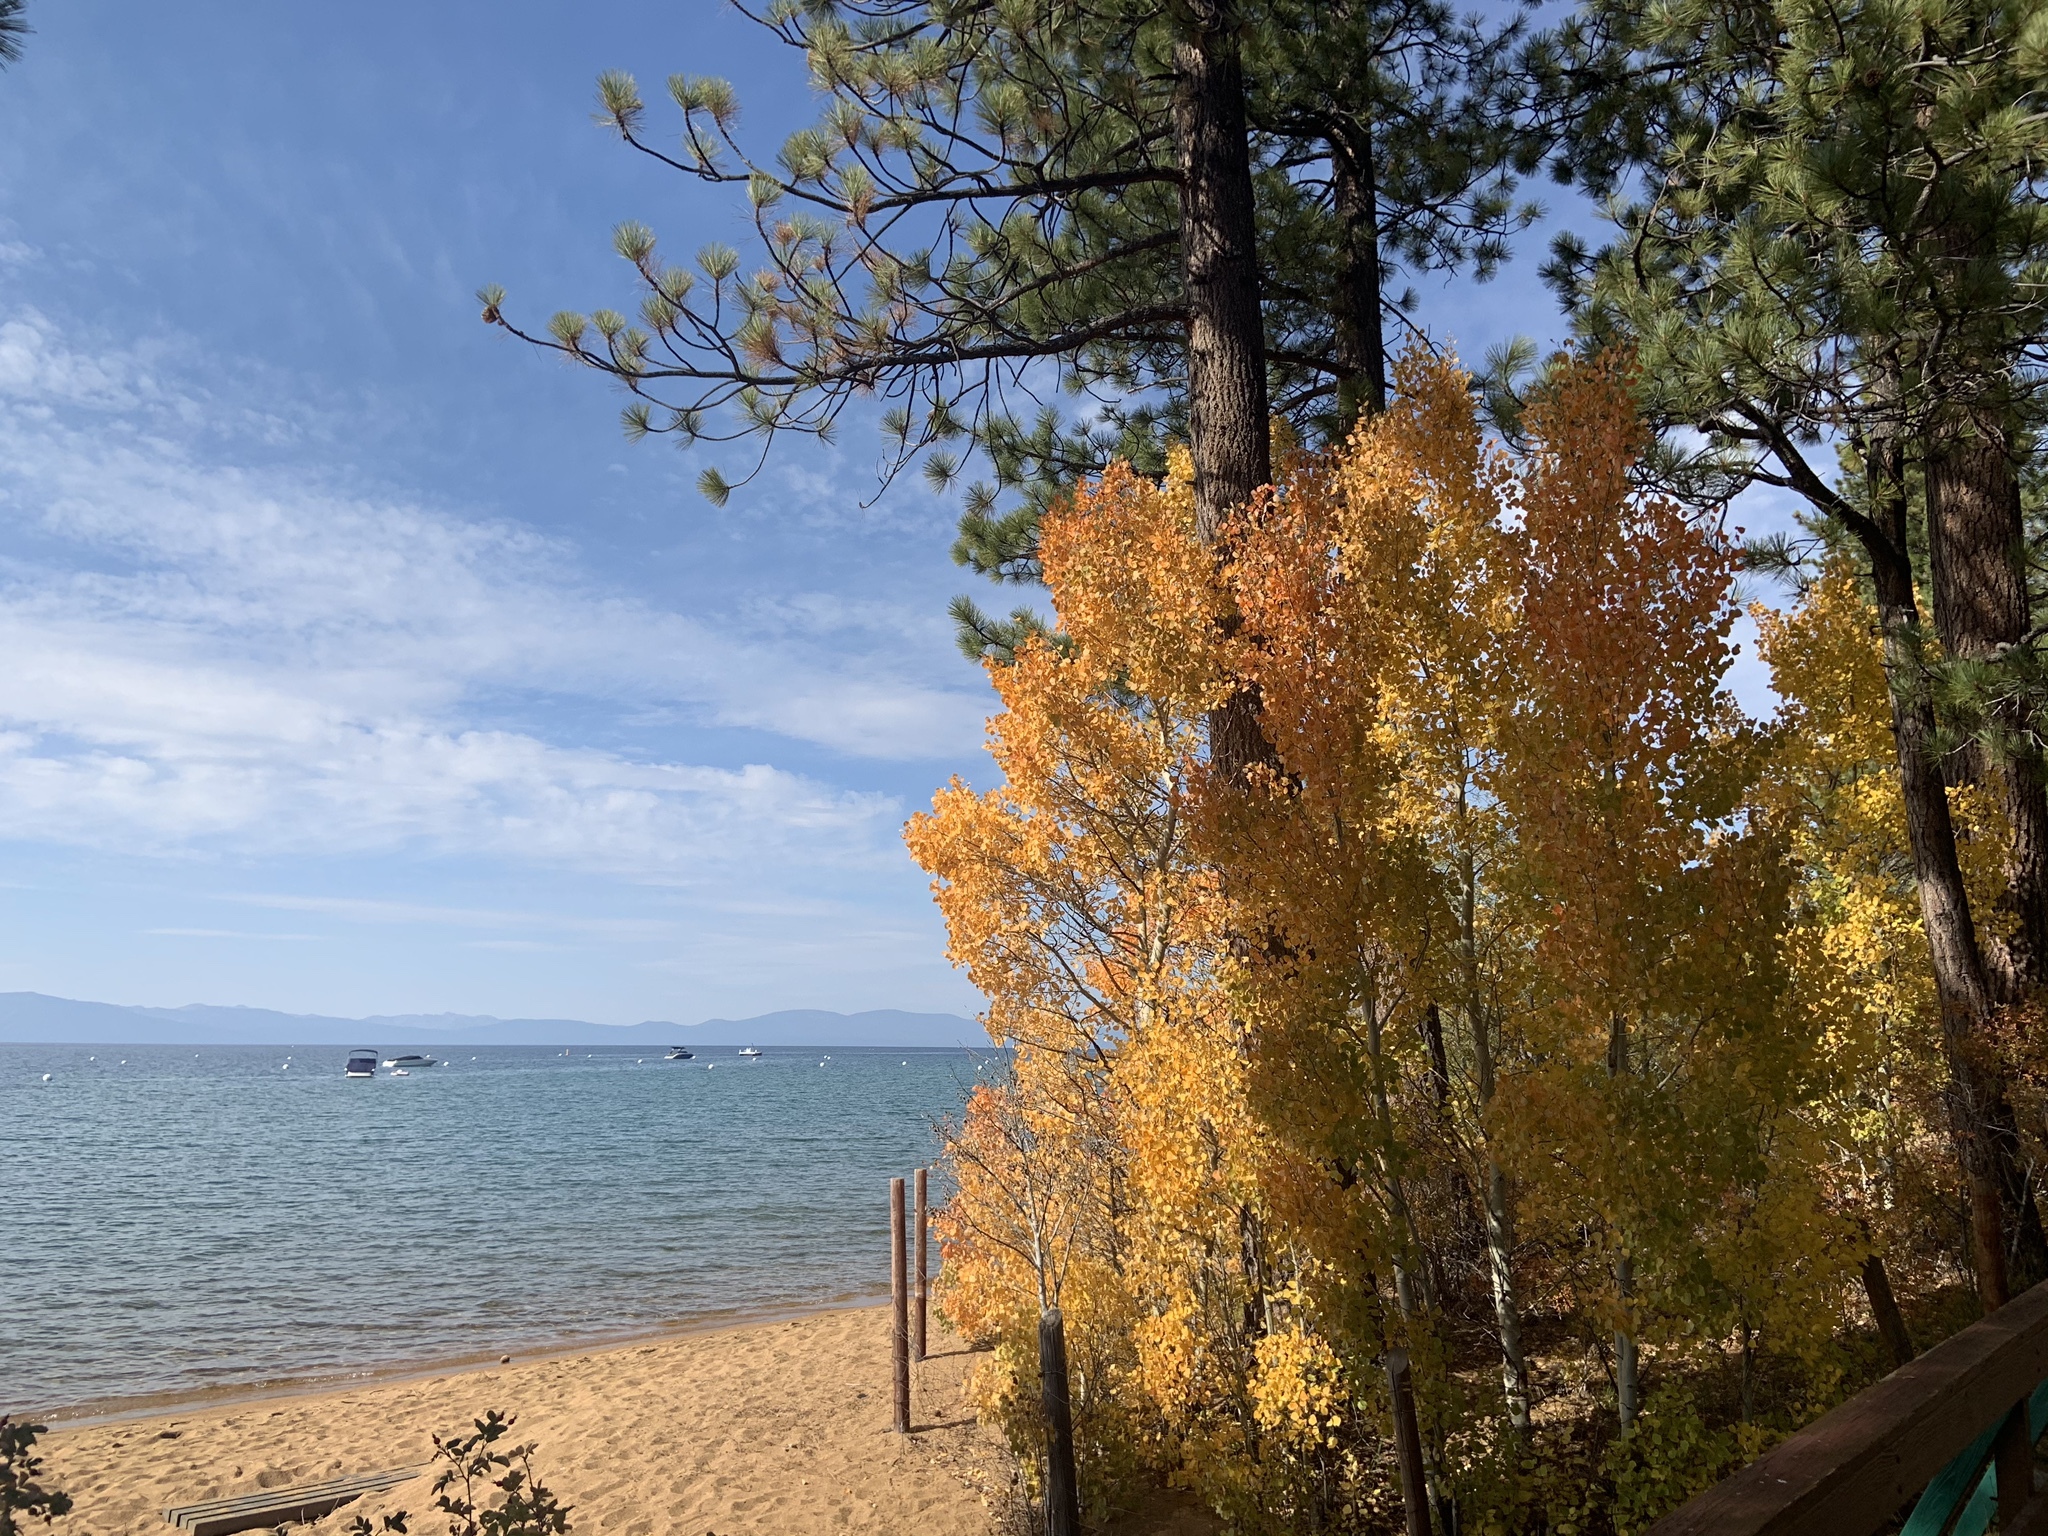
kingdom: Plantae
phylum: Tracheophyta
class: Magnoliopsida
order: Malpighiales
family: Salicaceae
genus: Populus
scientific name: Populus tremuloides
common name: Quaking aspen
